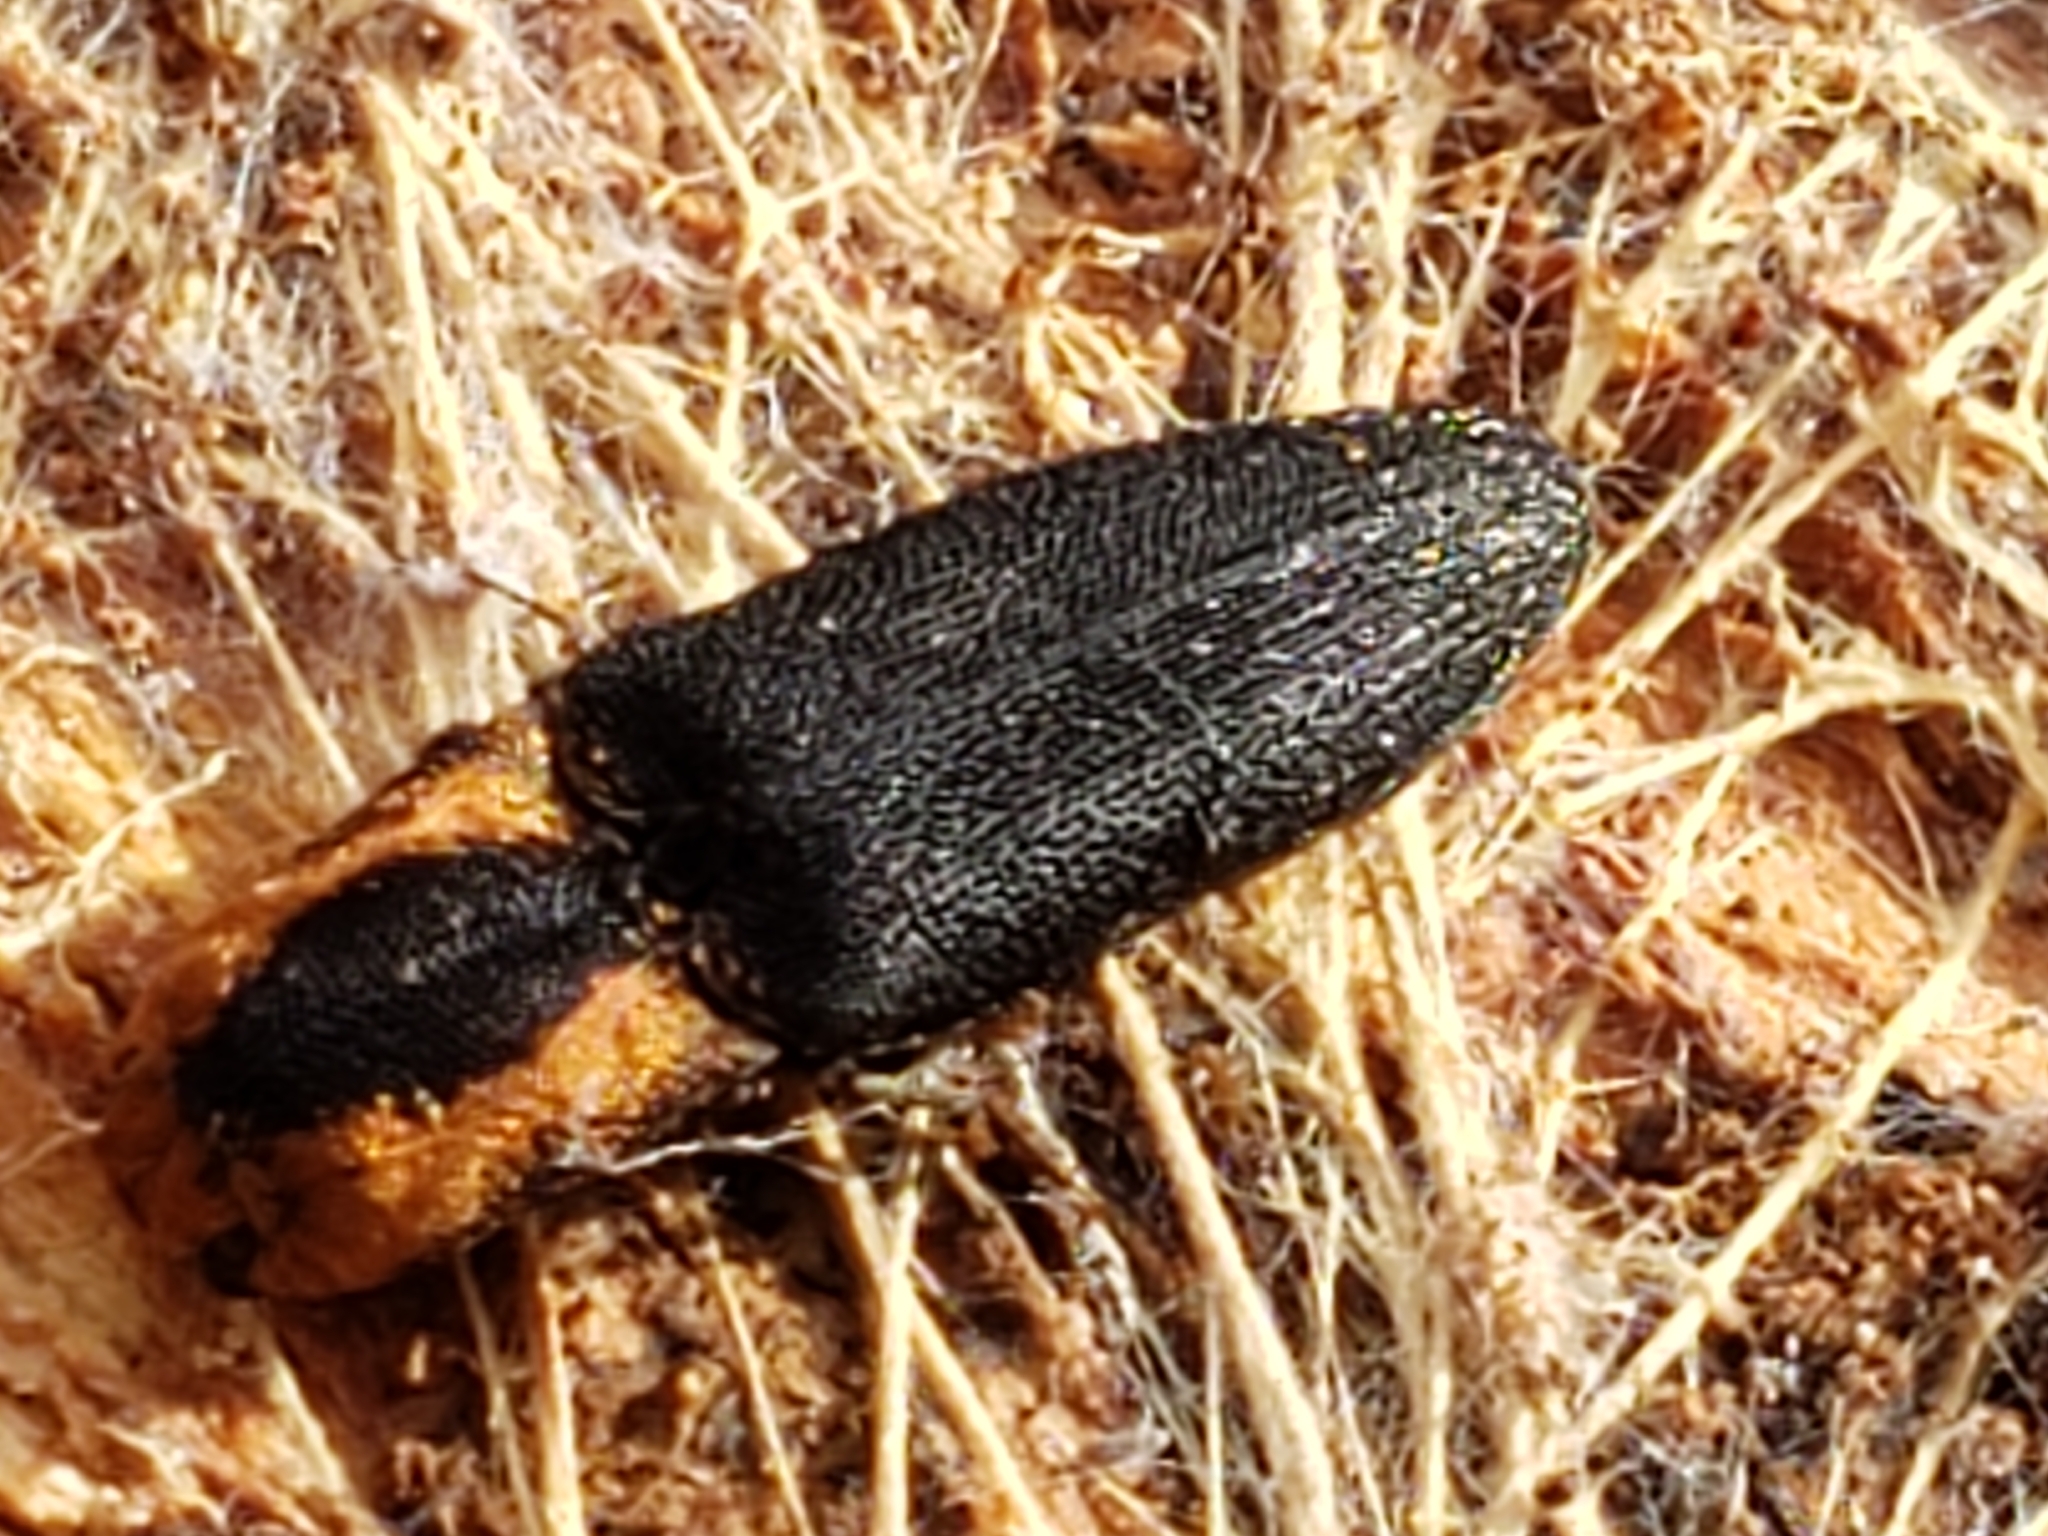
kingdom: Animalia
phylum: Arthropoda
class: Insecta
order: Coleoptera
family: Elateridae
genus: Lacon
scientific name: Lacon discoideus
